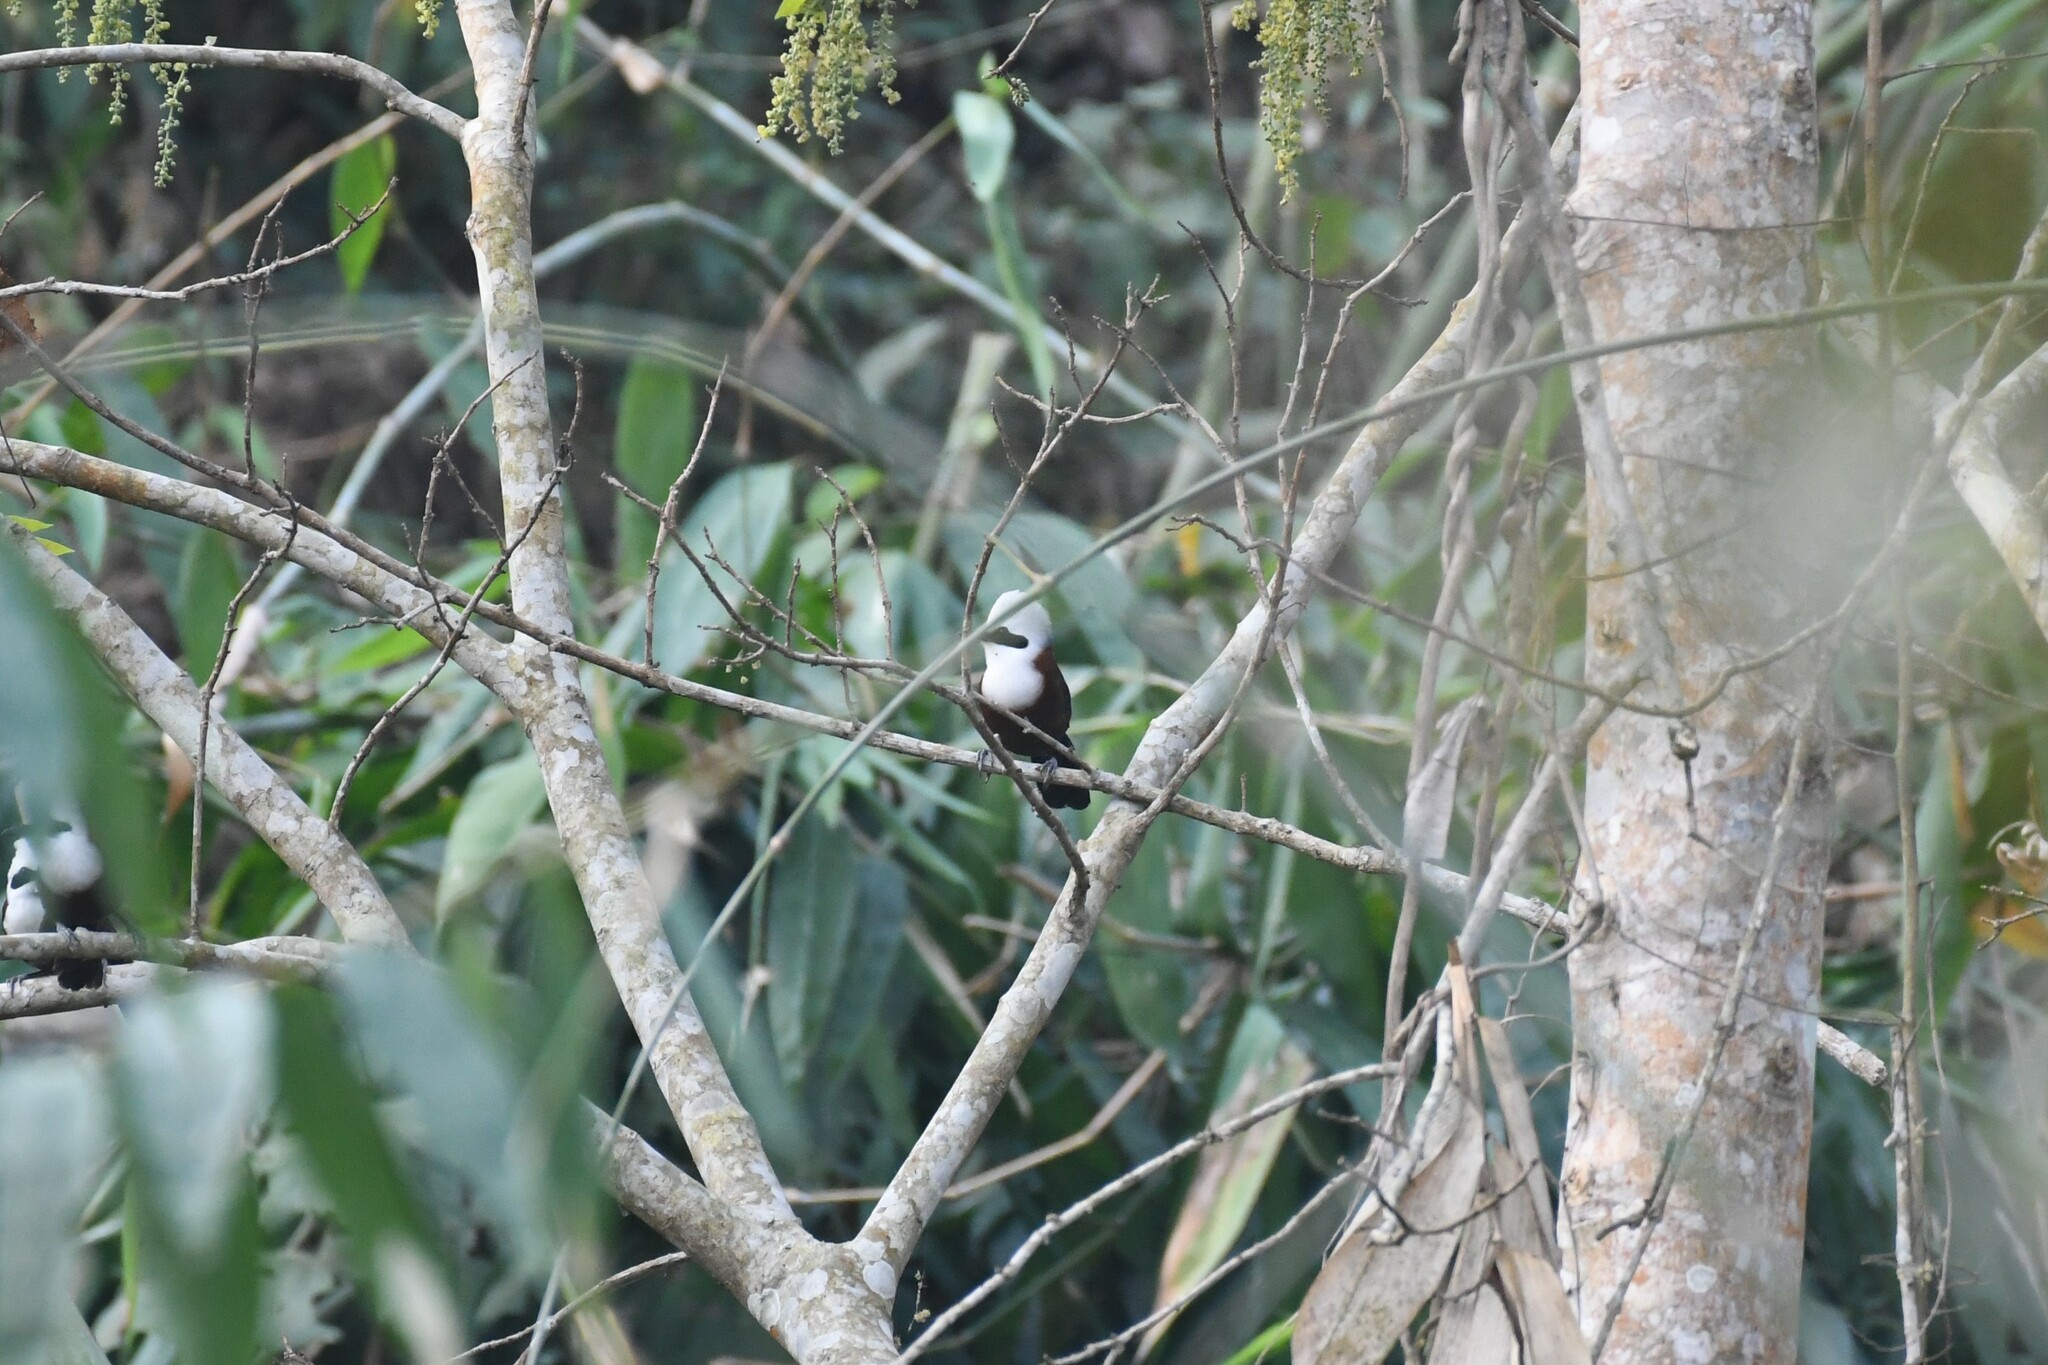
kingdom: Animalia
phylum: Chordata
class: Aves
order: Passeriformes
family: Leiothrichidae
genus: Garrulax
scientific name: Garrulax leucolophus
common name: White-crested laughingthrush
